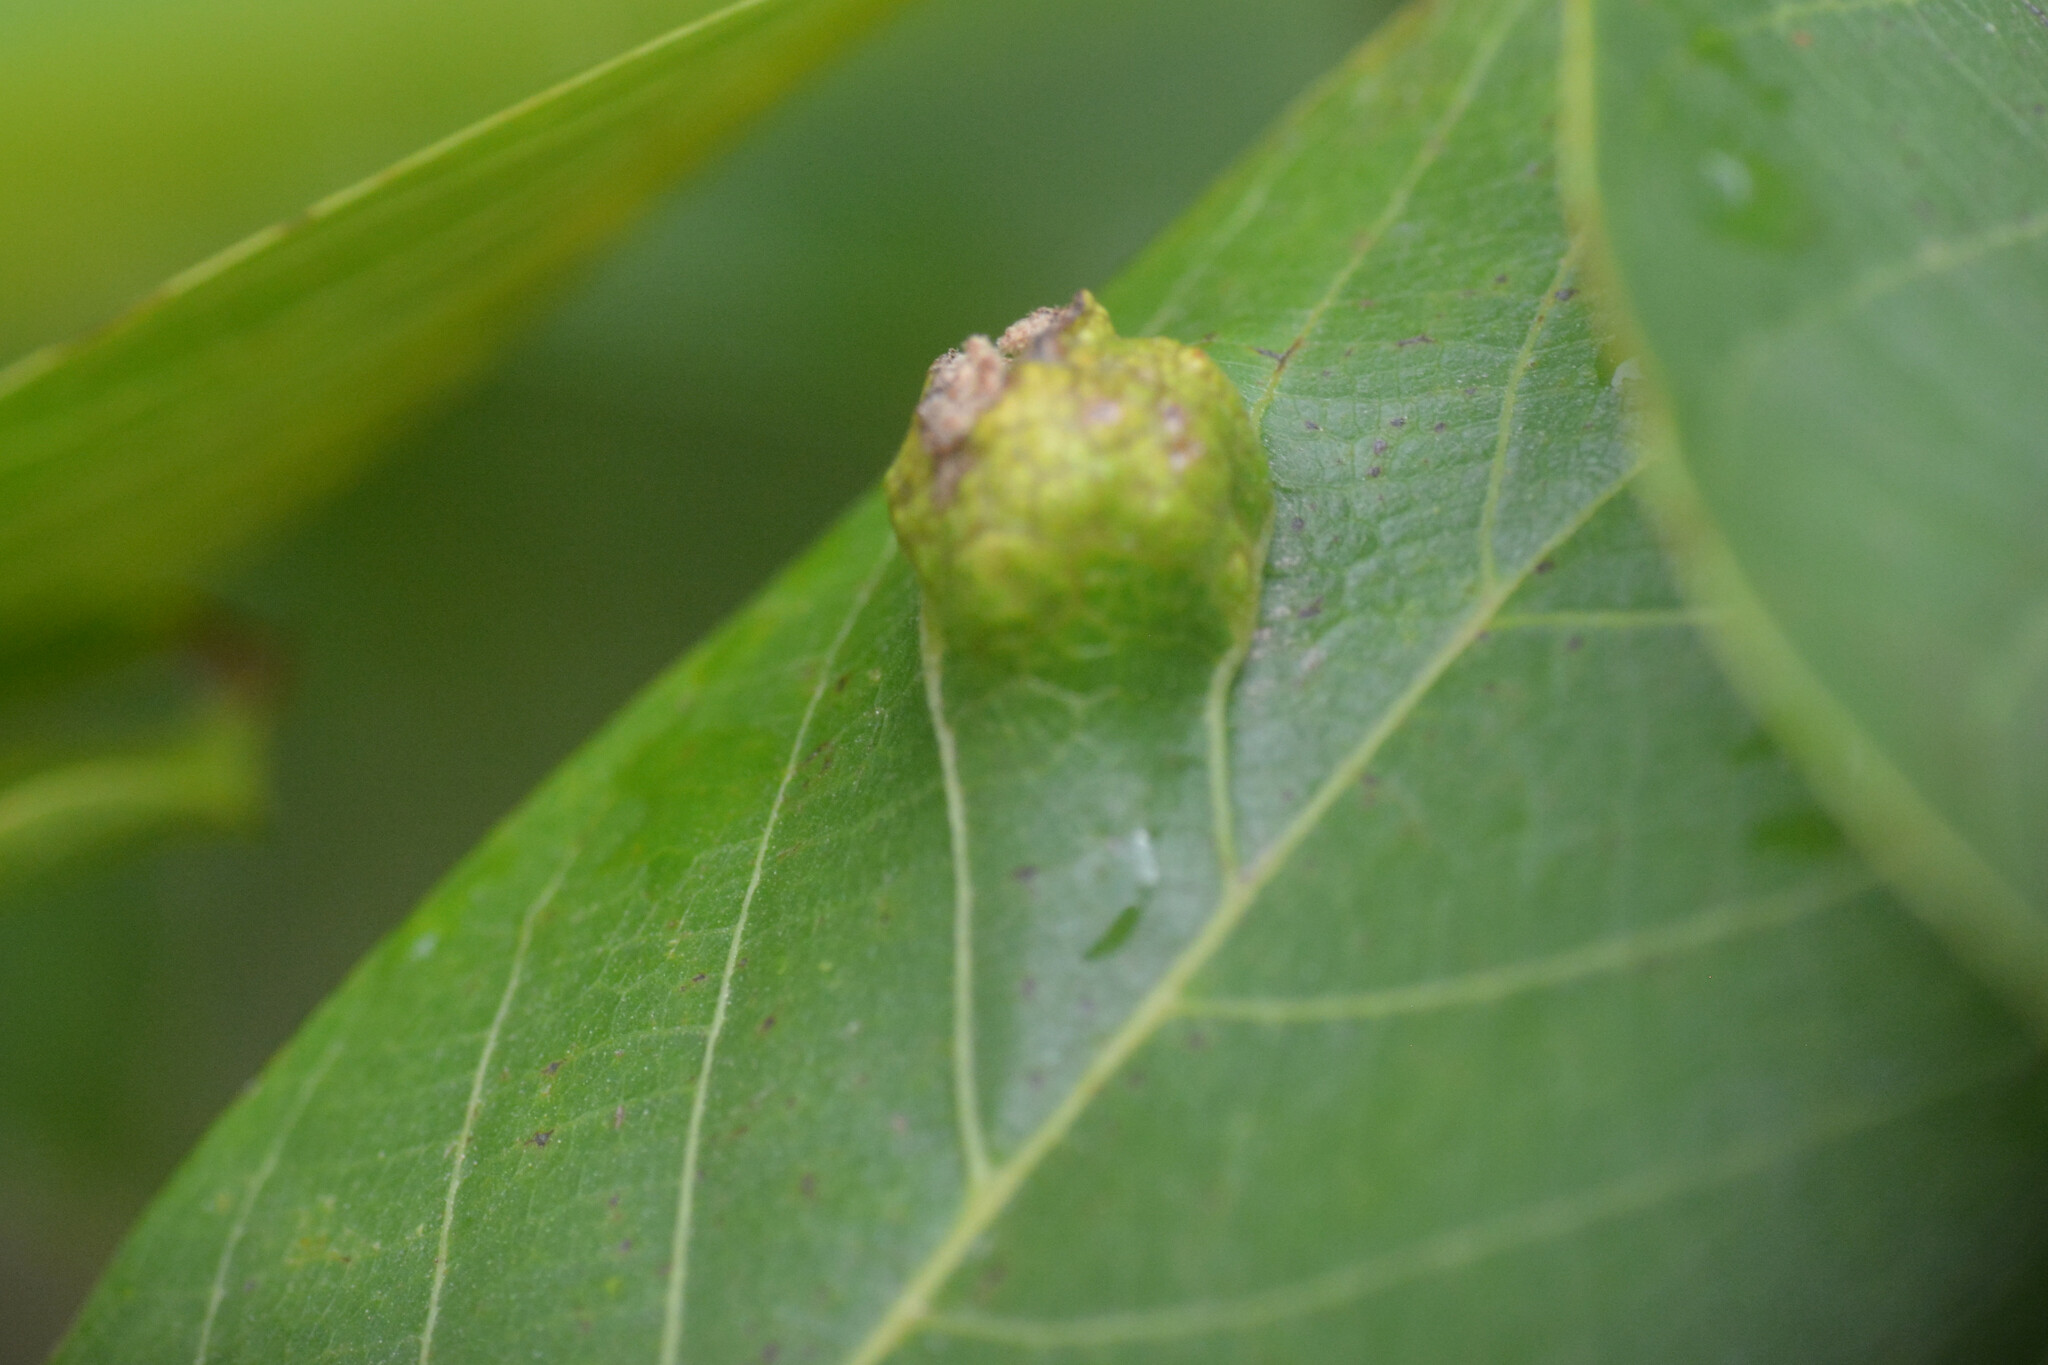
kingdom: Animalia
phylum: Arthropoda
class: Arachnida
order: Trombidiformes
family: Eriophyidae
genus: Aceria
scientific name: Aceria erinea
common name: Persian walnut erineum mite
